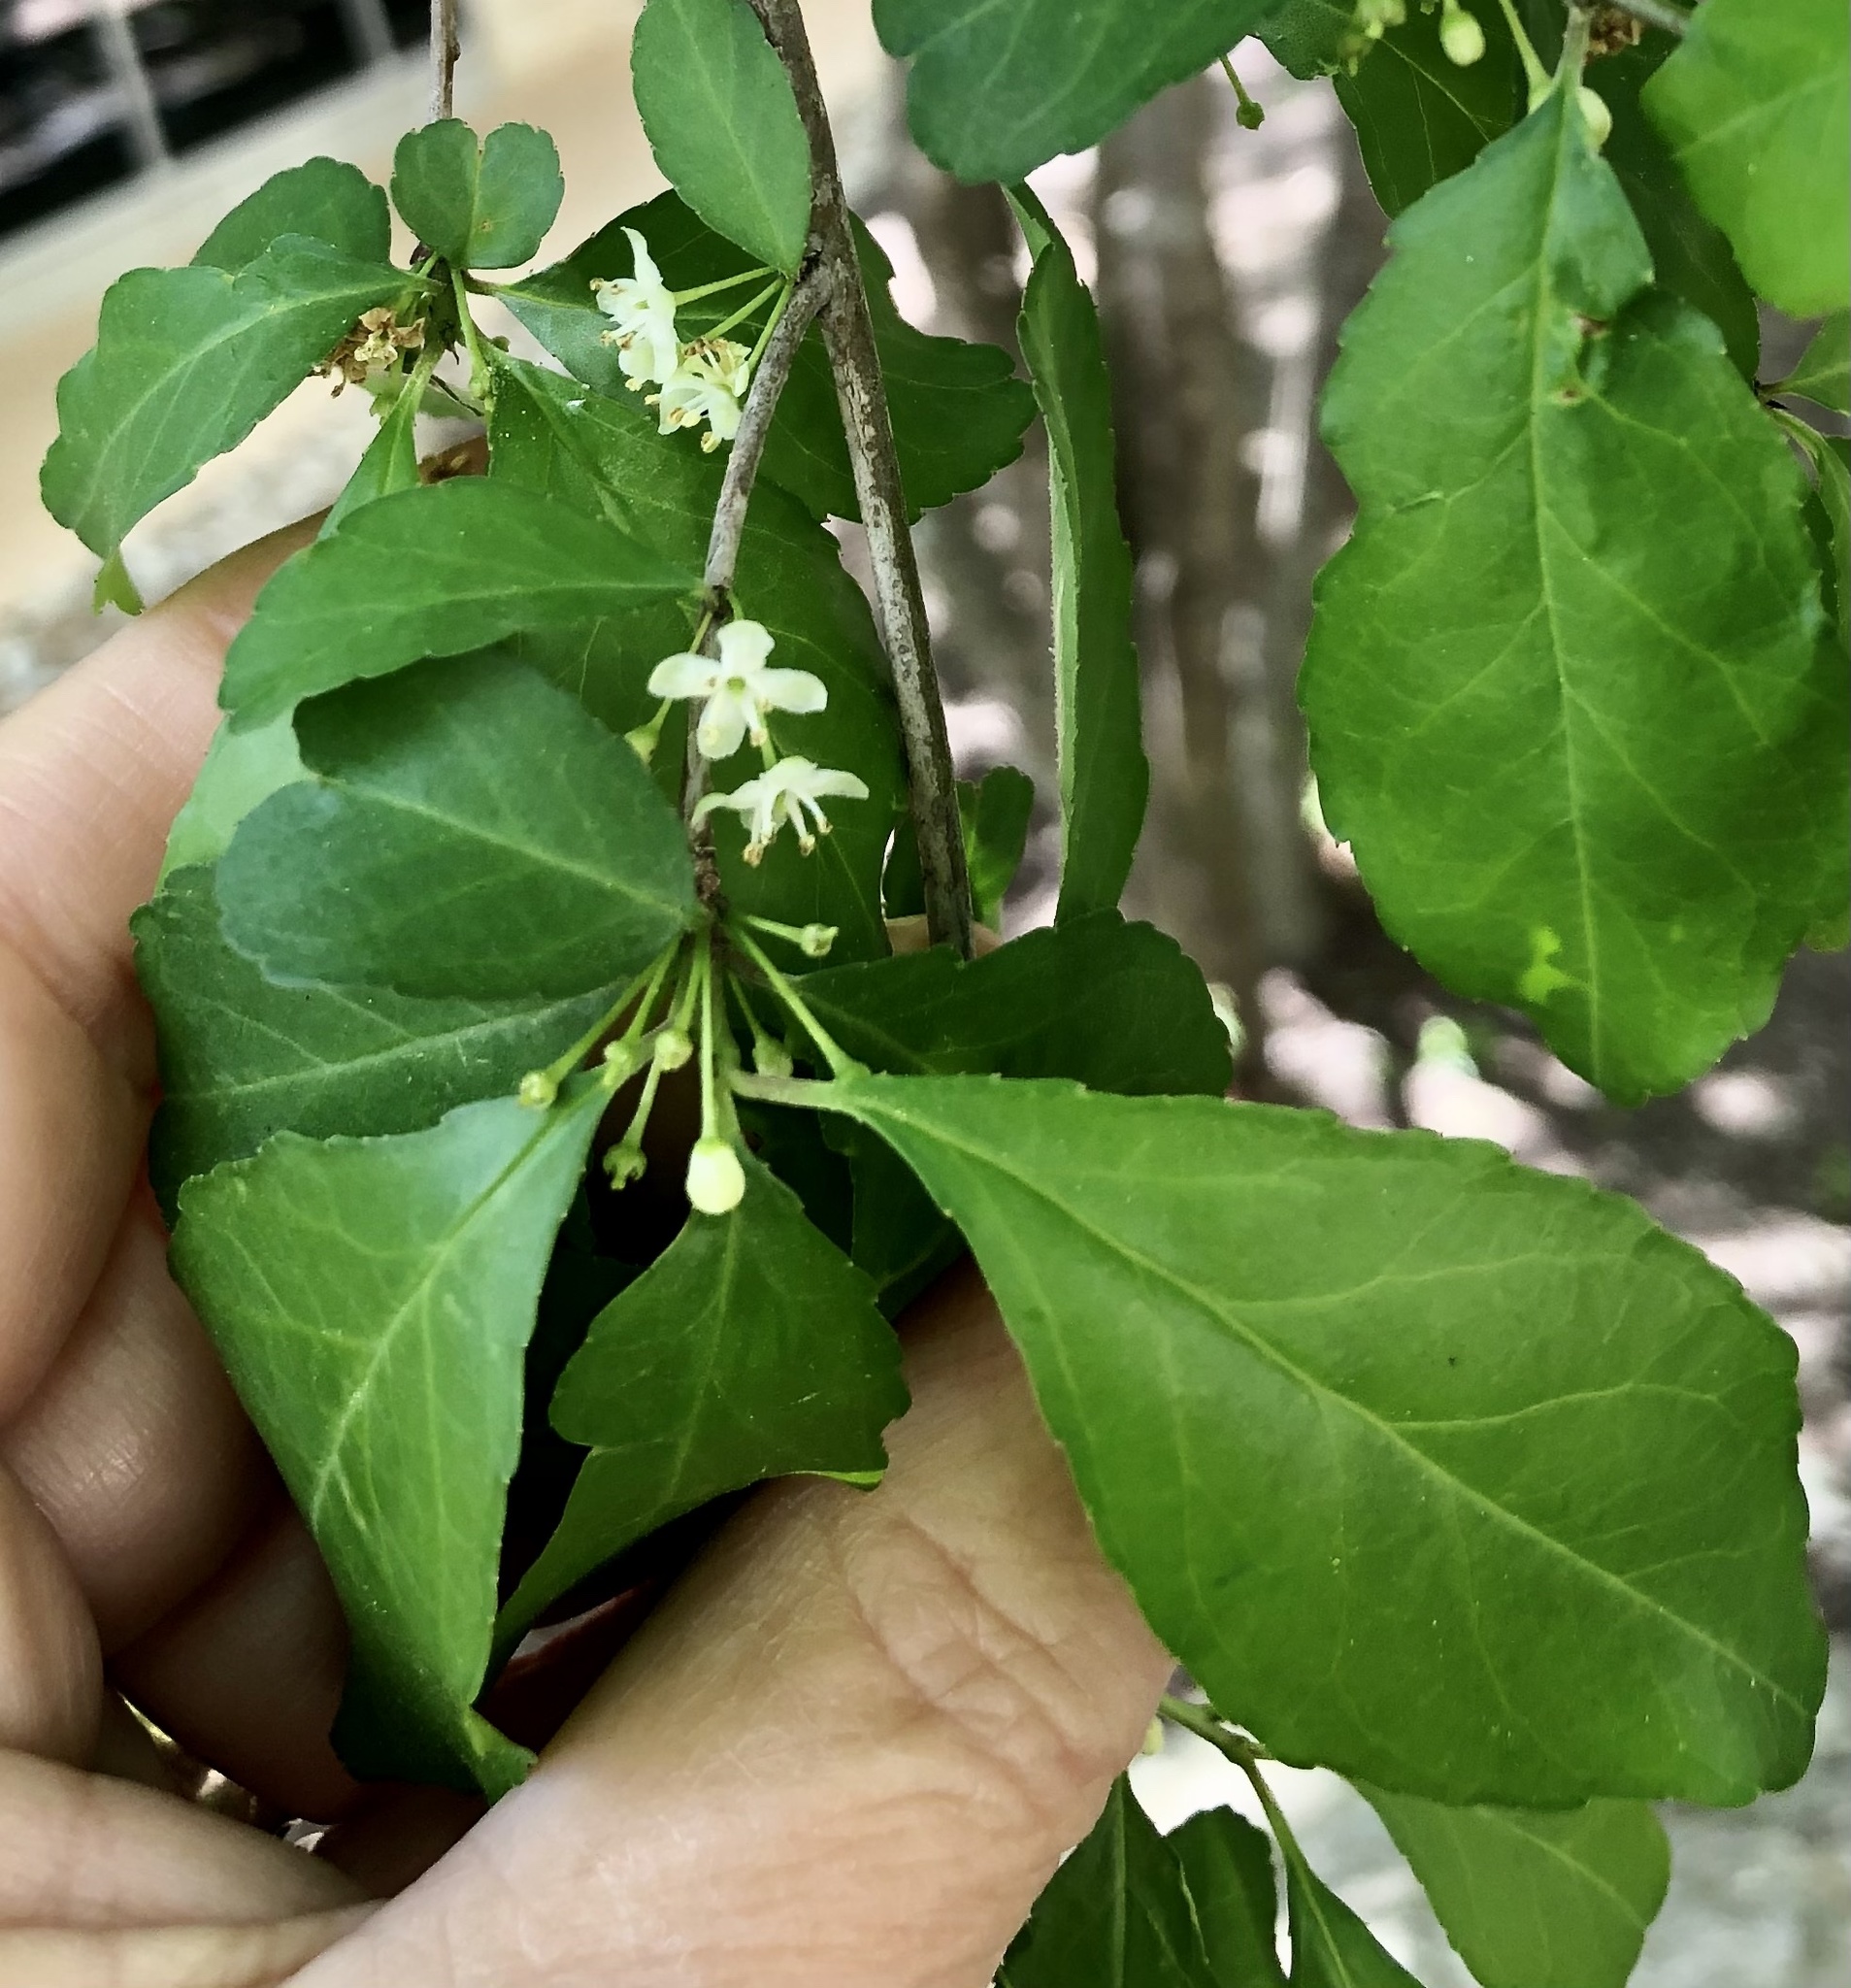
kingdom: Plantae
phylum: Tracheophyta
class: Magnoliopsida
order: Aquifoliales
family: Aquifoliaceae
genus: Ilex
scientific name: Ilex decidua
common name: Possum-haw
